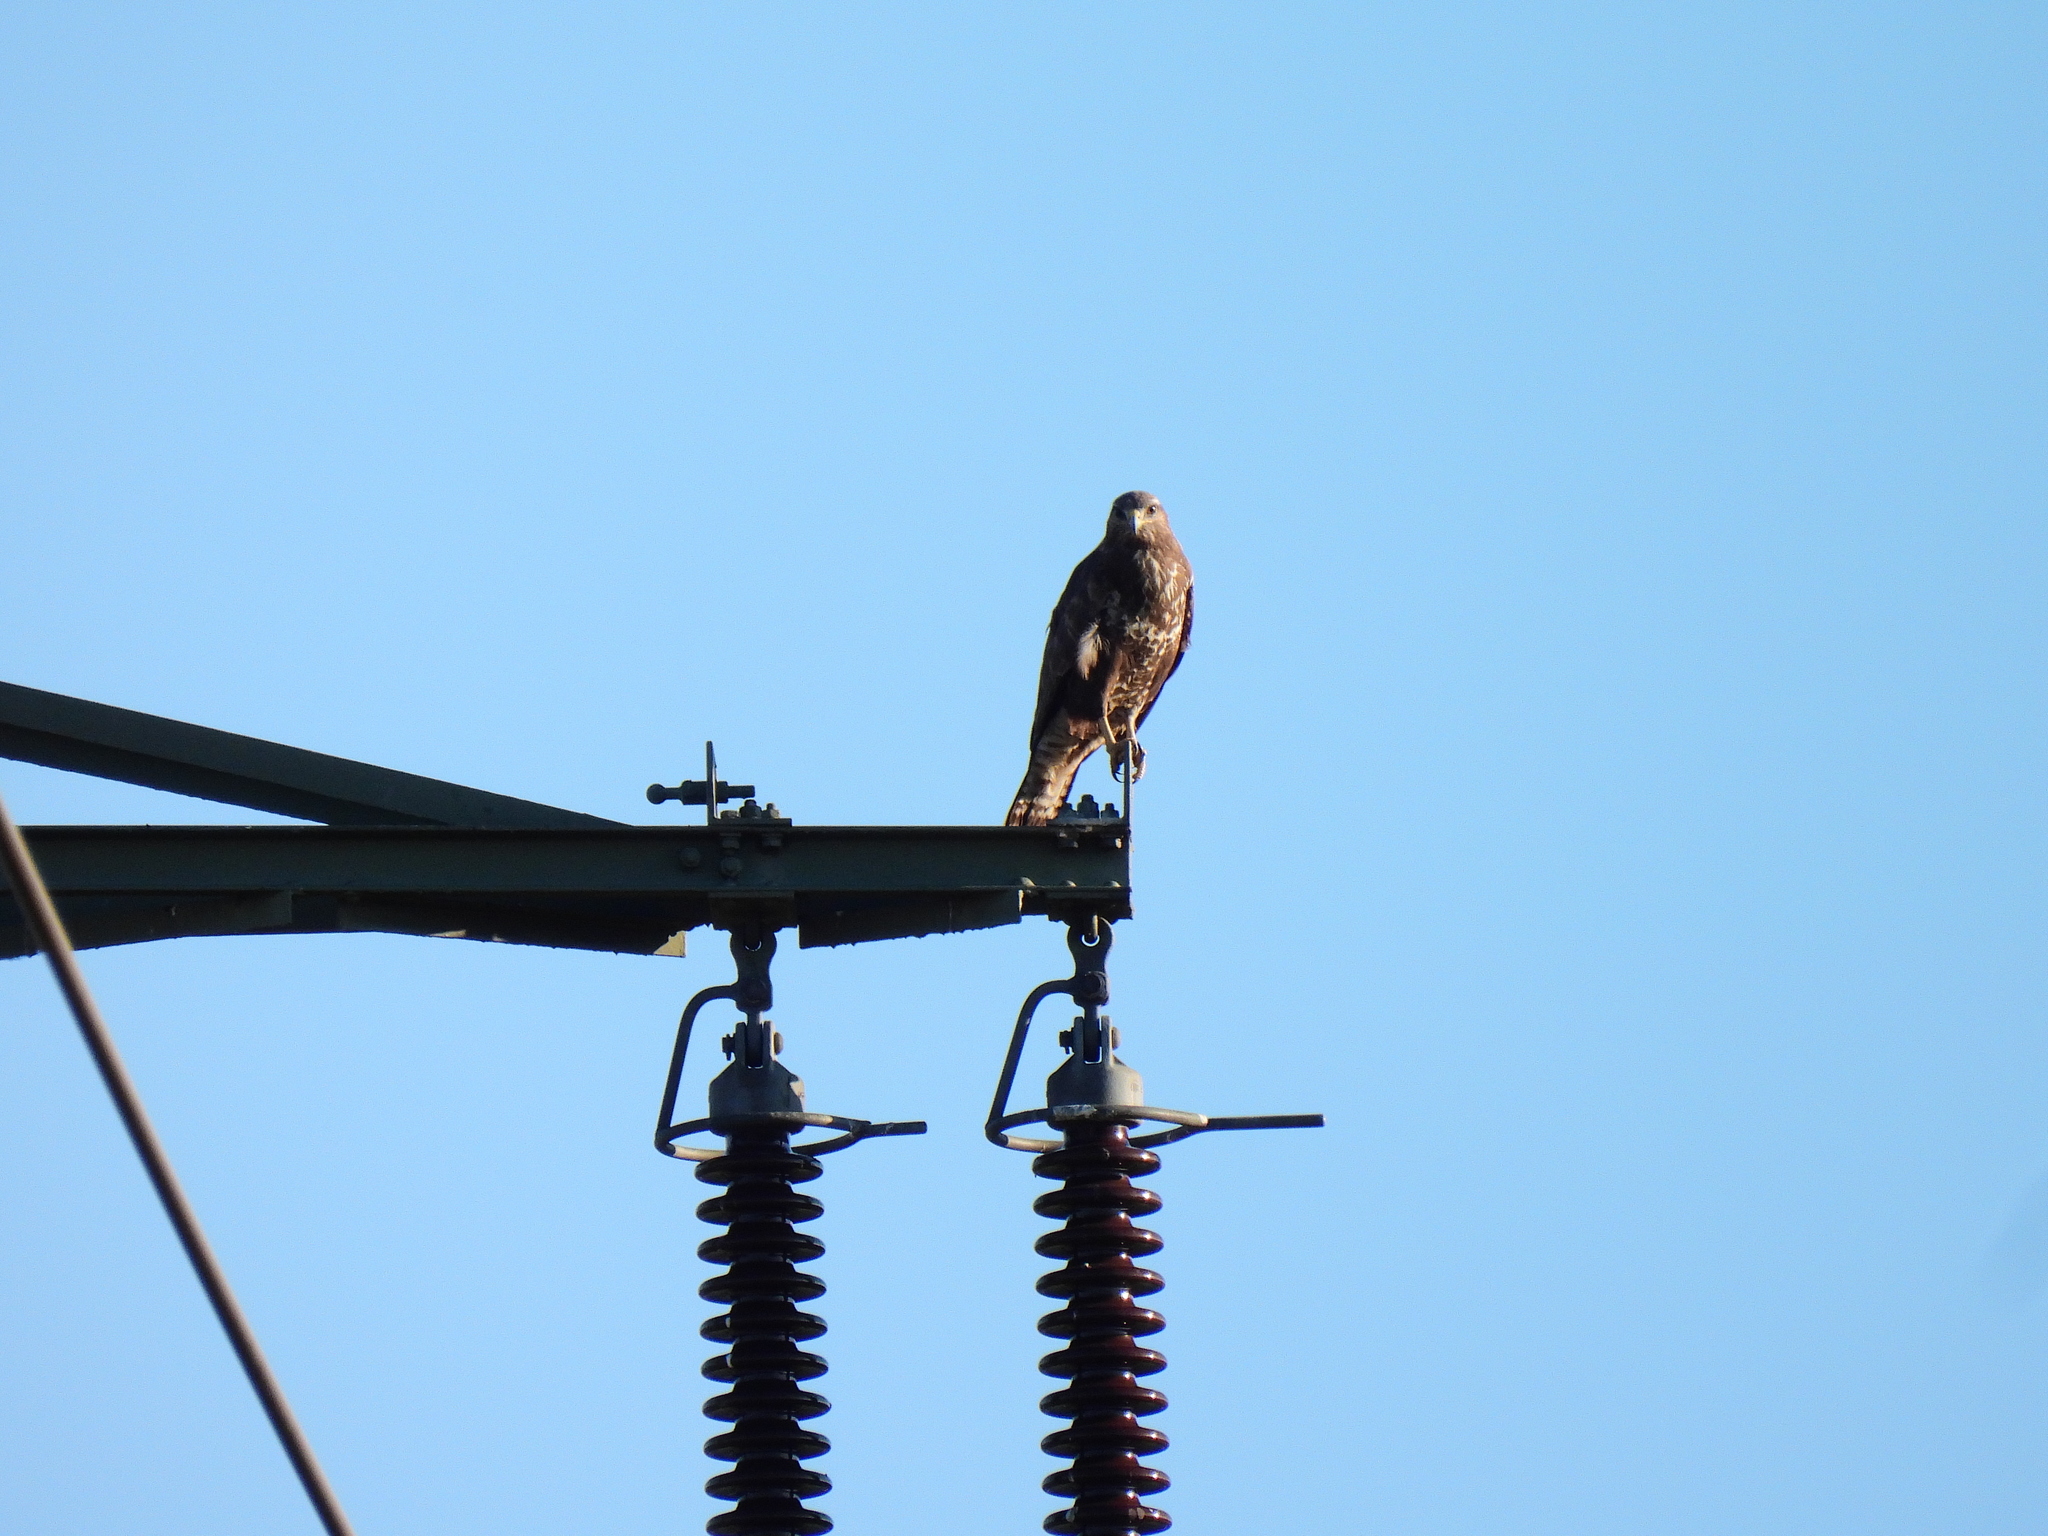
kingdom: Animalia
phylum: Chordata
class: Aves
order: Accipitriformes
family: Accipitridae
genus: Buteo
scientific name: Buteo buteo
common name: Common buzzard
